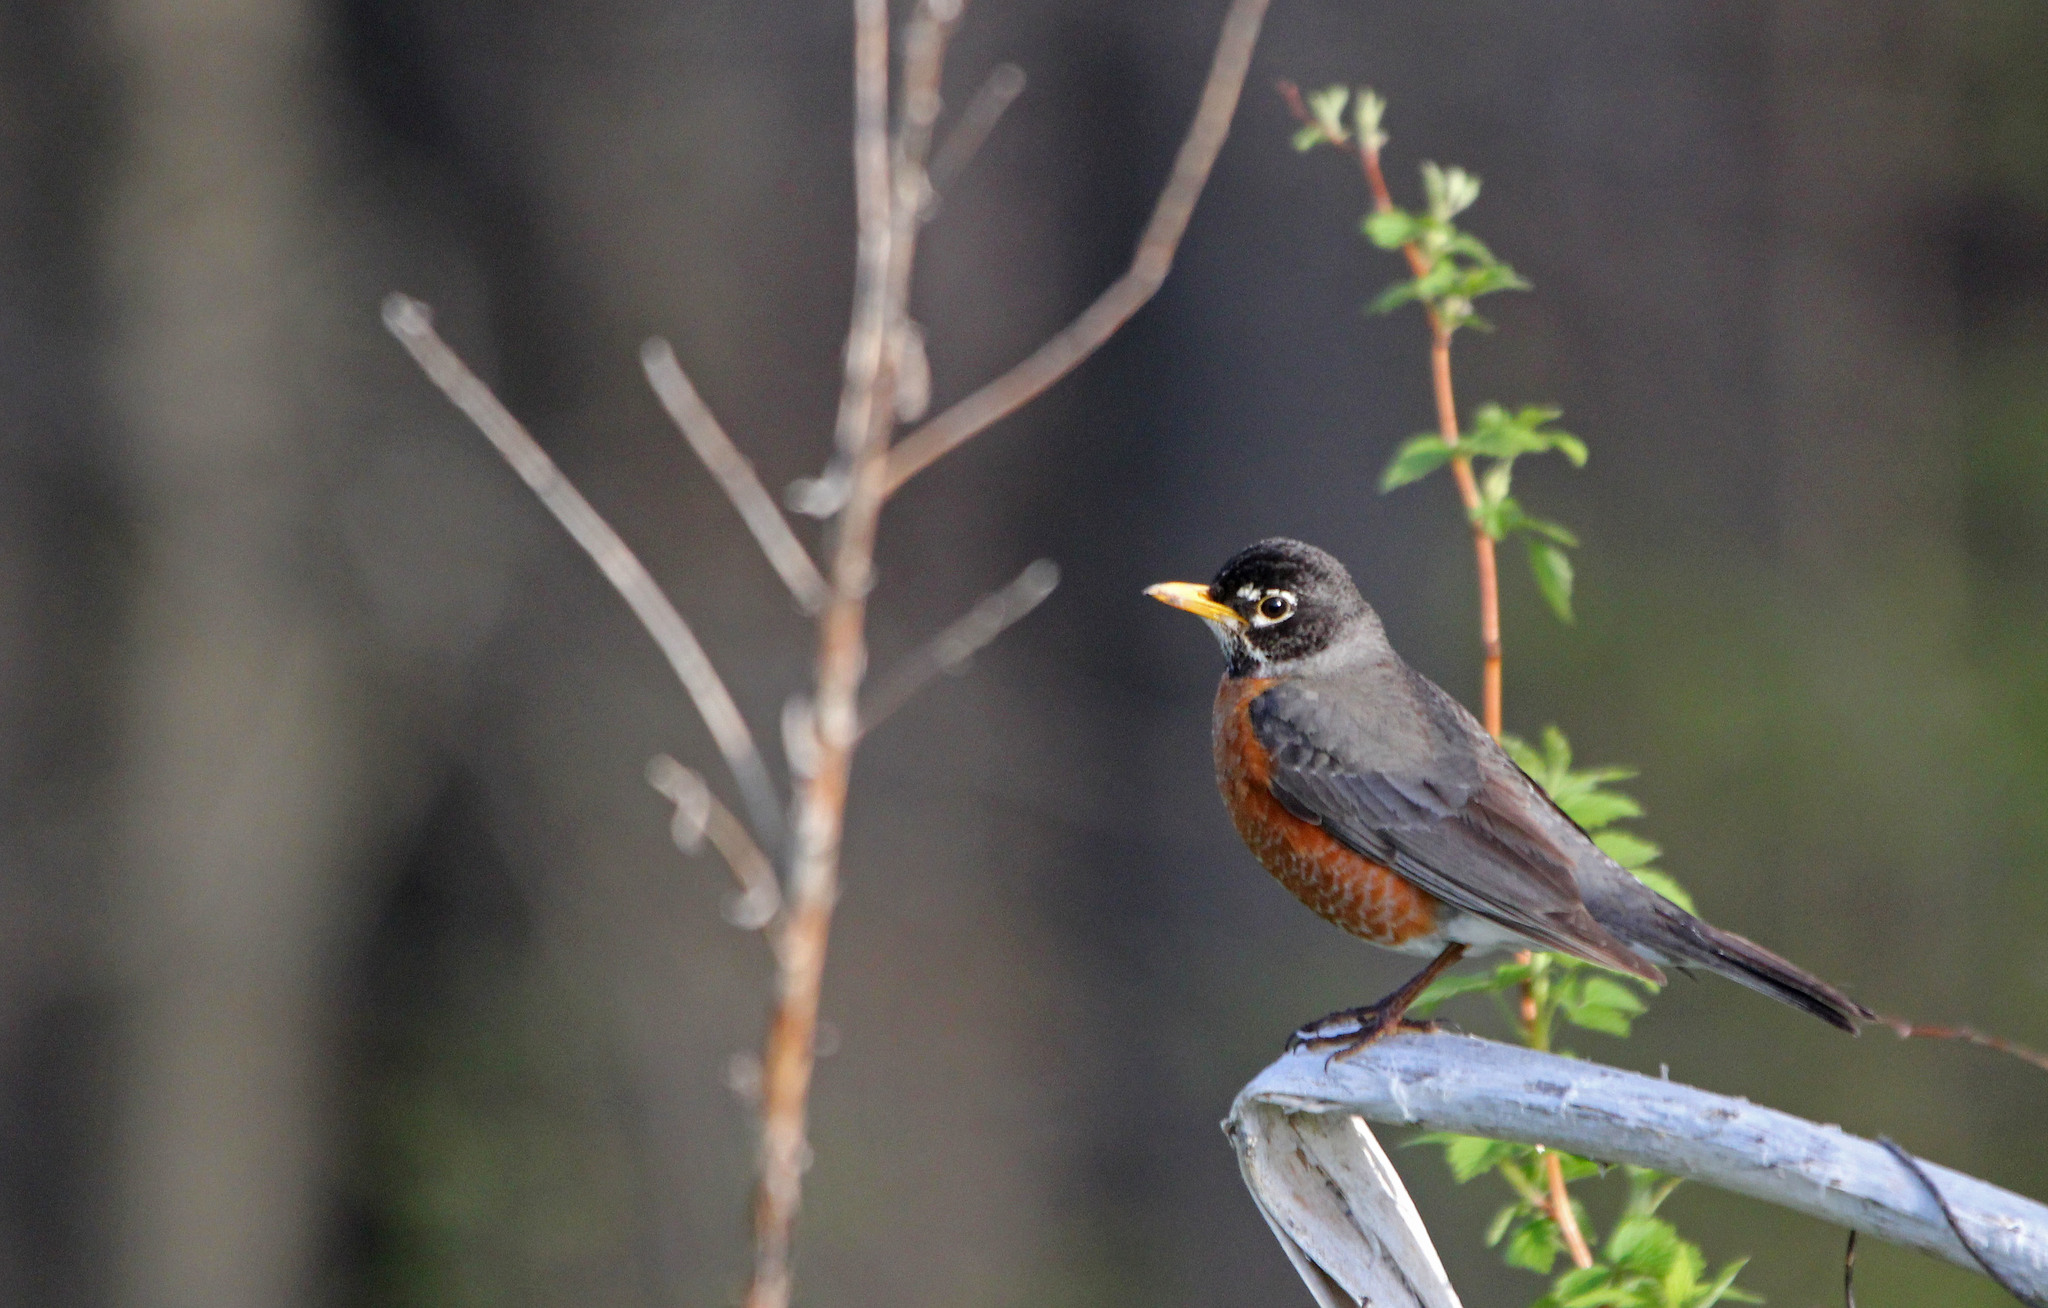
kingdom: Animalia
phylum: Chordata
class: Aves
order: Passeriformes
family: Turdidae
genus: Turdus
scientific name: Turdus migratorius
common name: American robin
